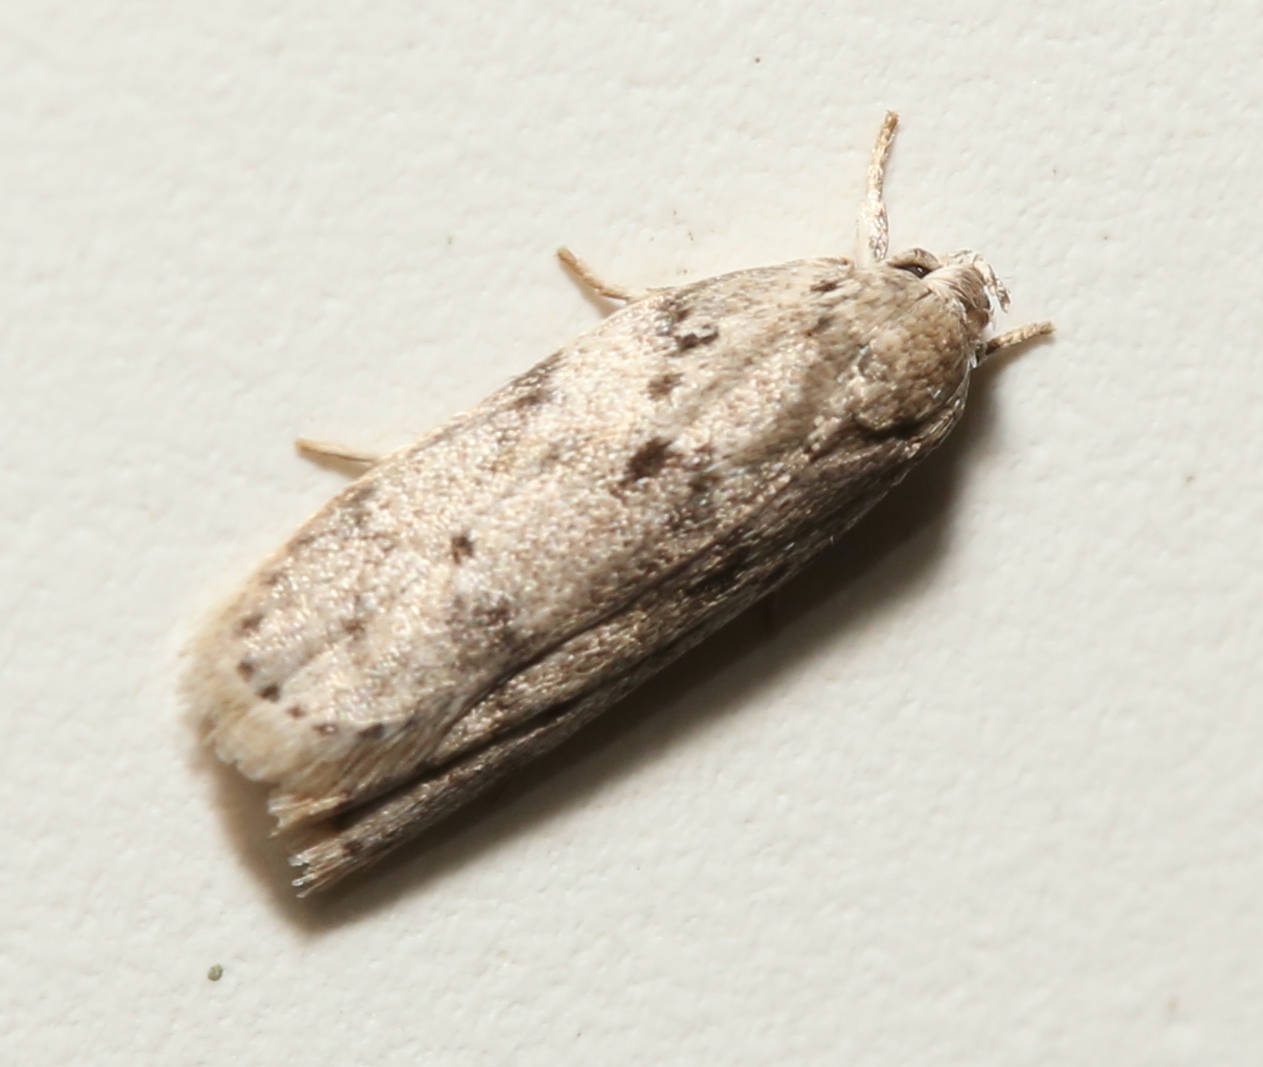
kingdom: Animalia
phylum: Arthropoda
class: Insecta
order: Lepidoptera
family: Depressariidae
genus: Antaeotricha
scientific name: Antaeotricha humilis
